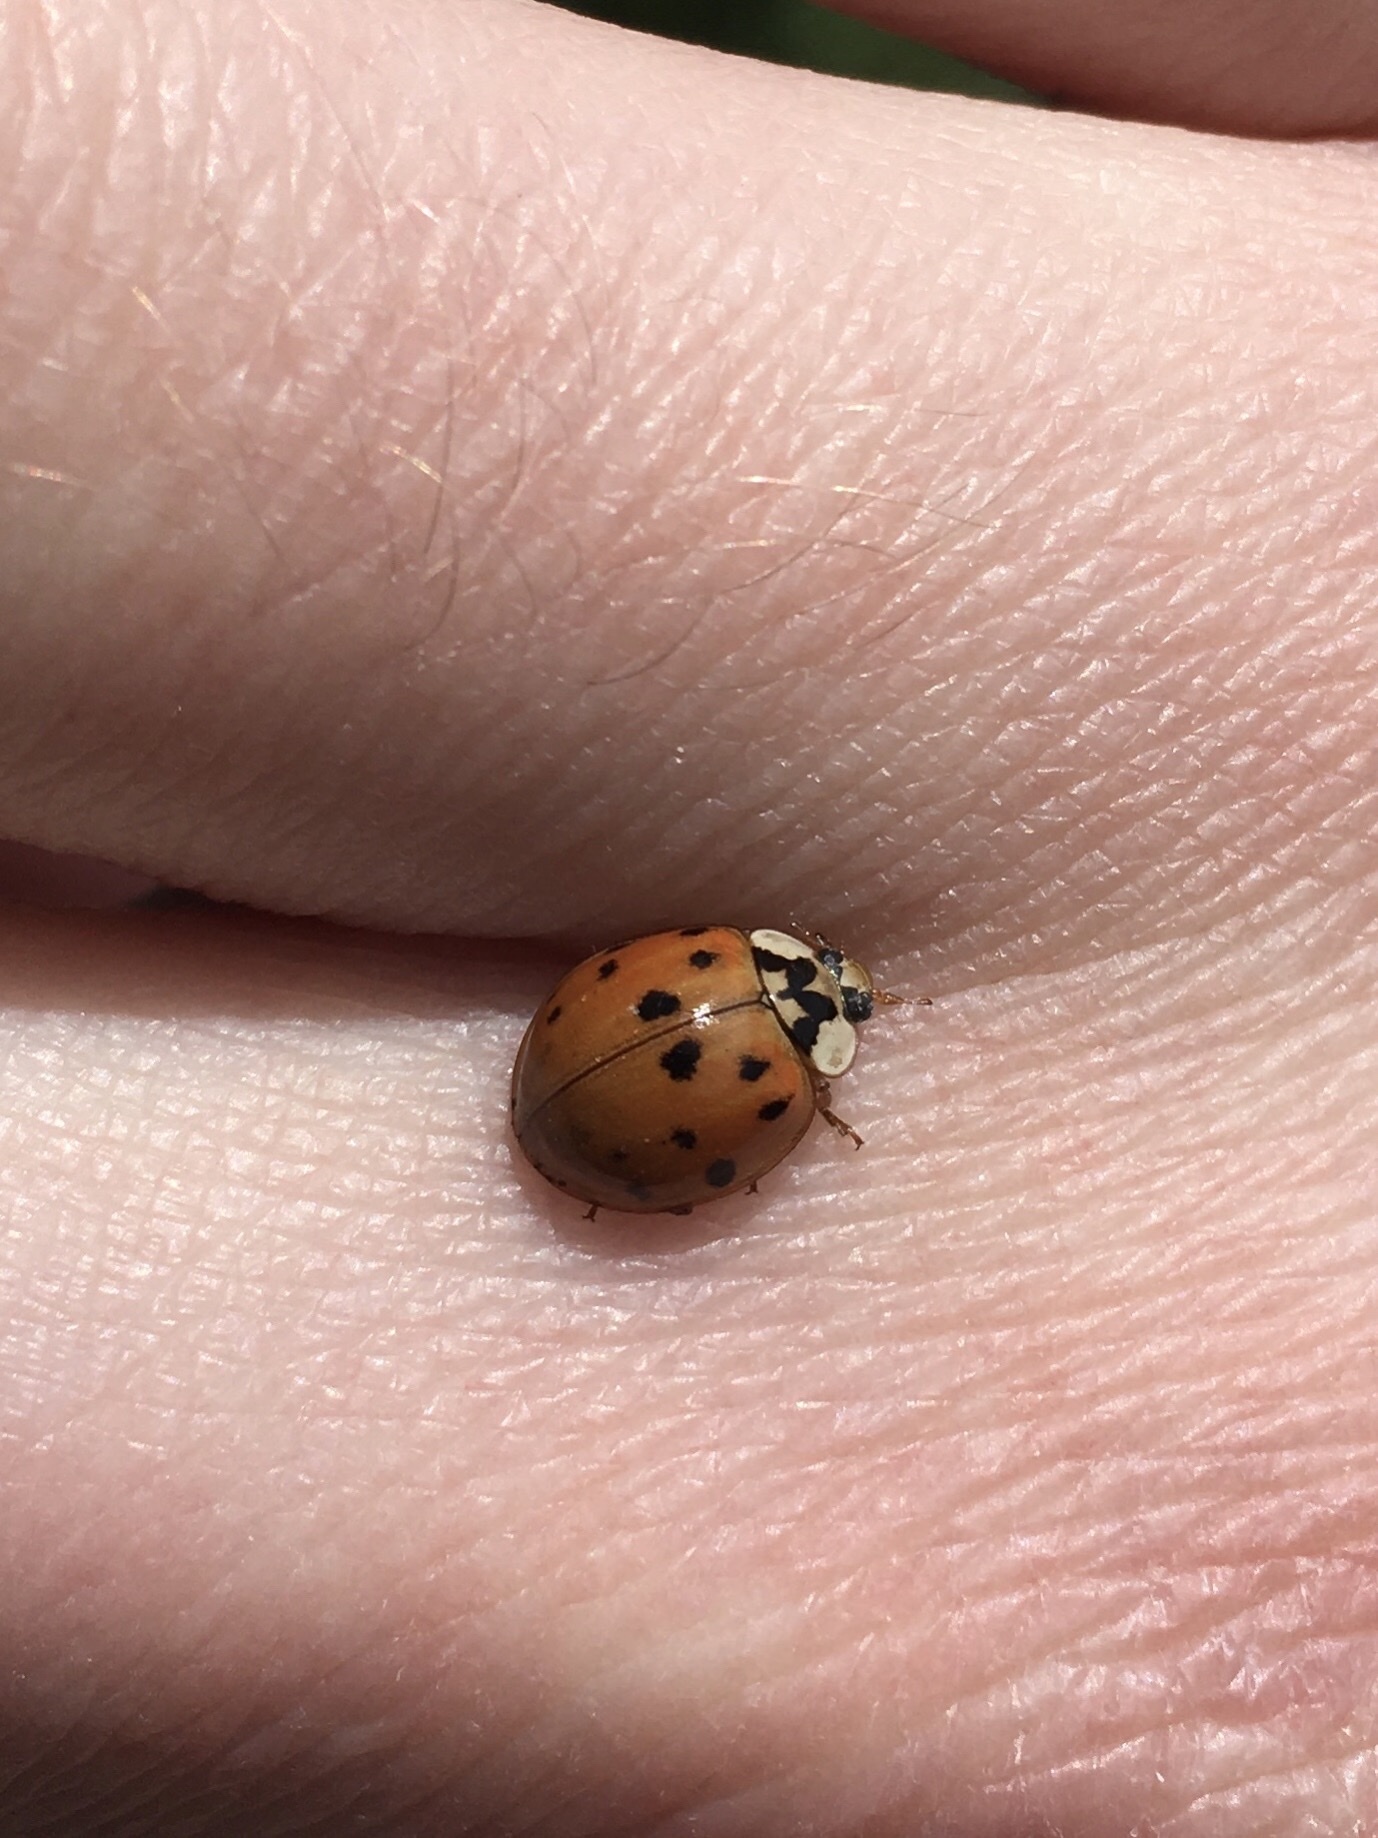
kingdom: Animalia
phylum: Arthropoda
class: Insecta
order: Coleoptera
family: Coccinellidae
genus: Harmonia
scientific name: Harmonia axyridis
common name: Harlequin ladybird
